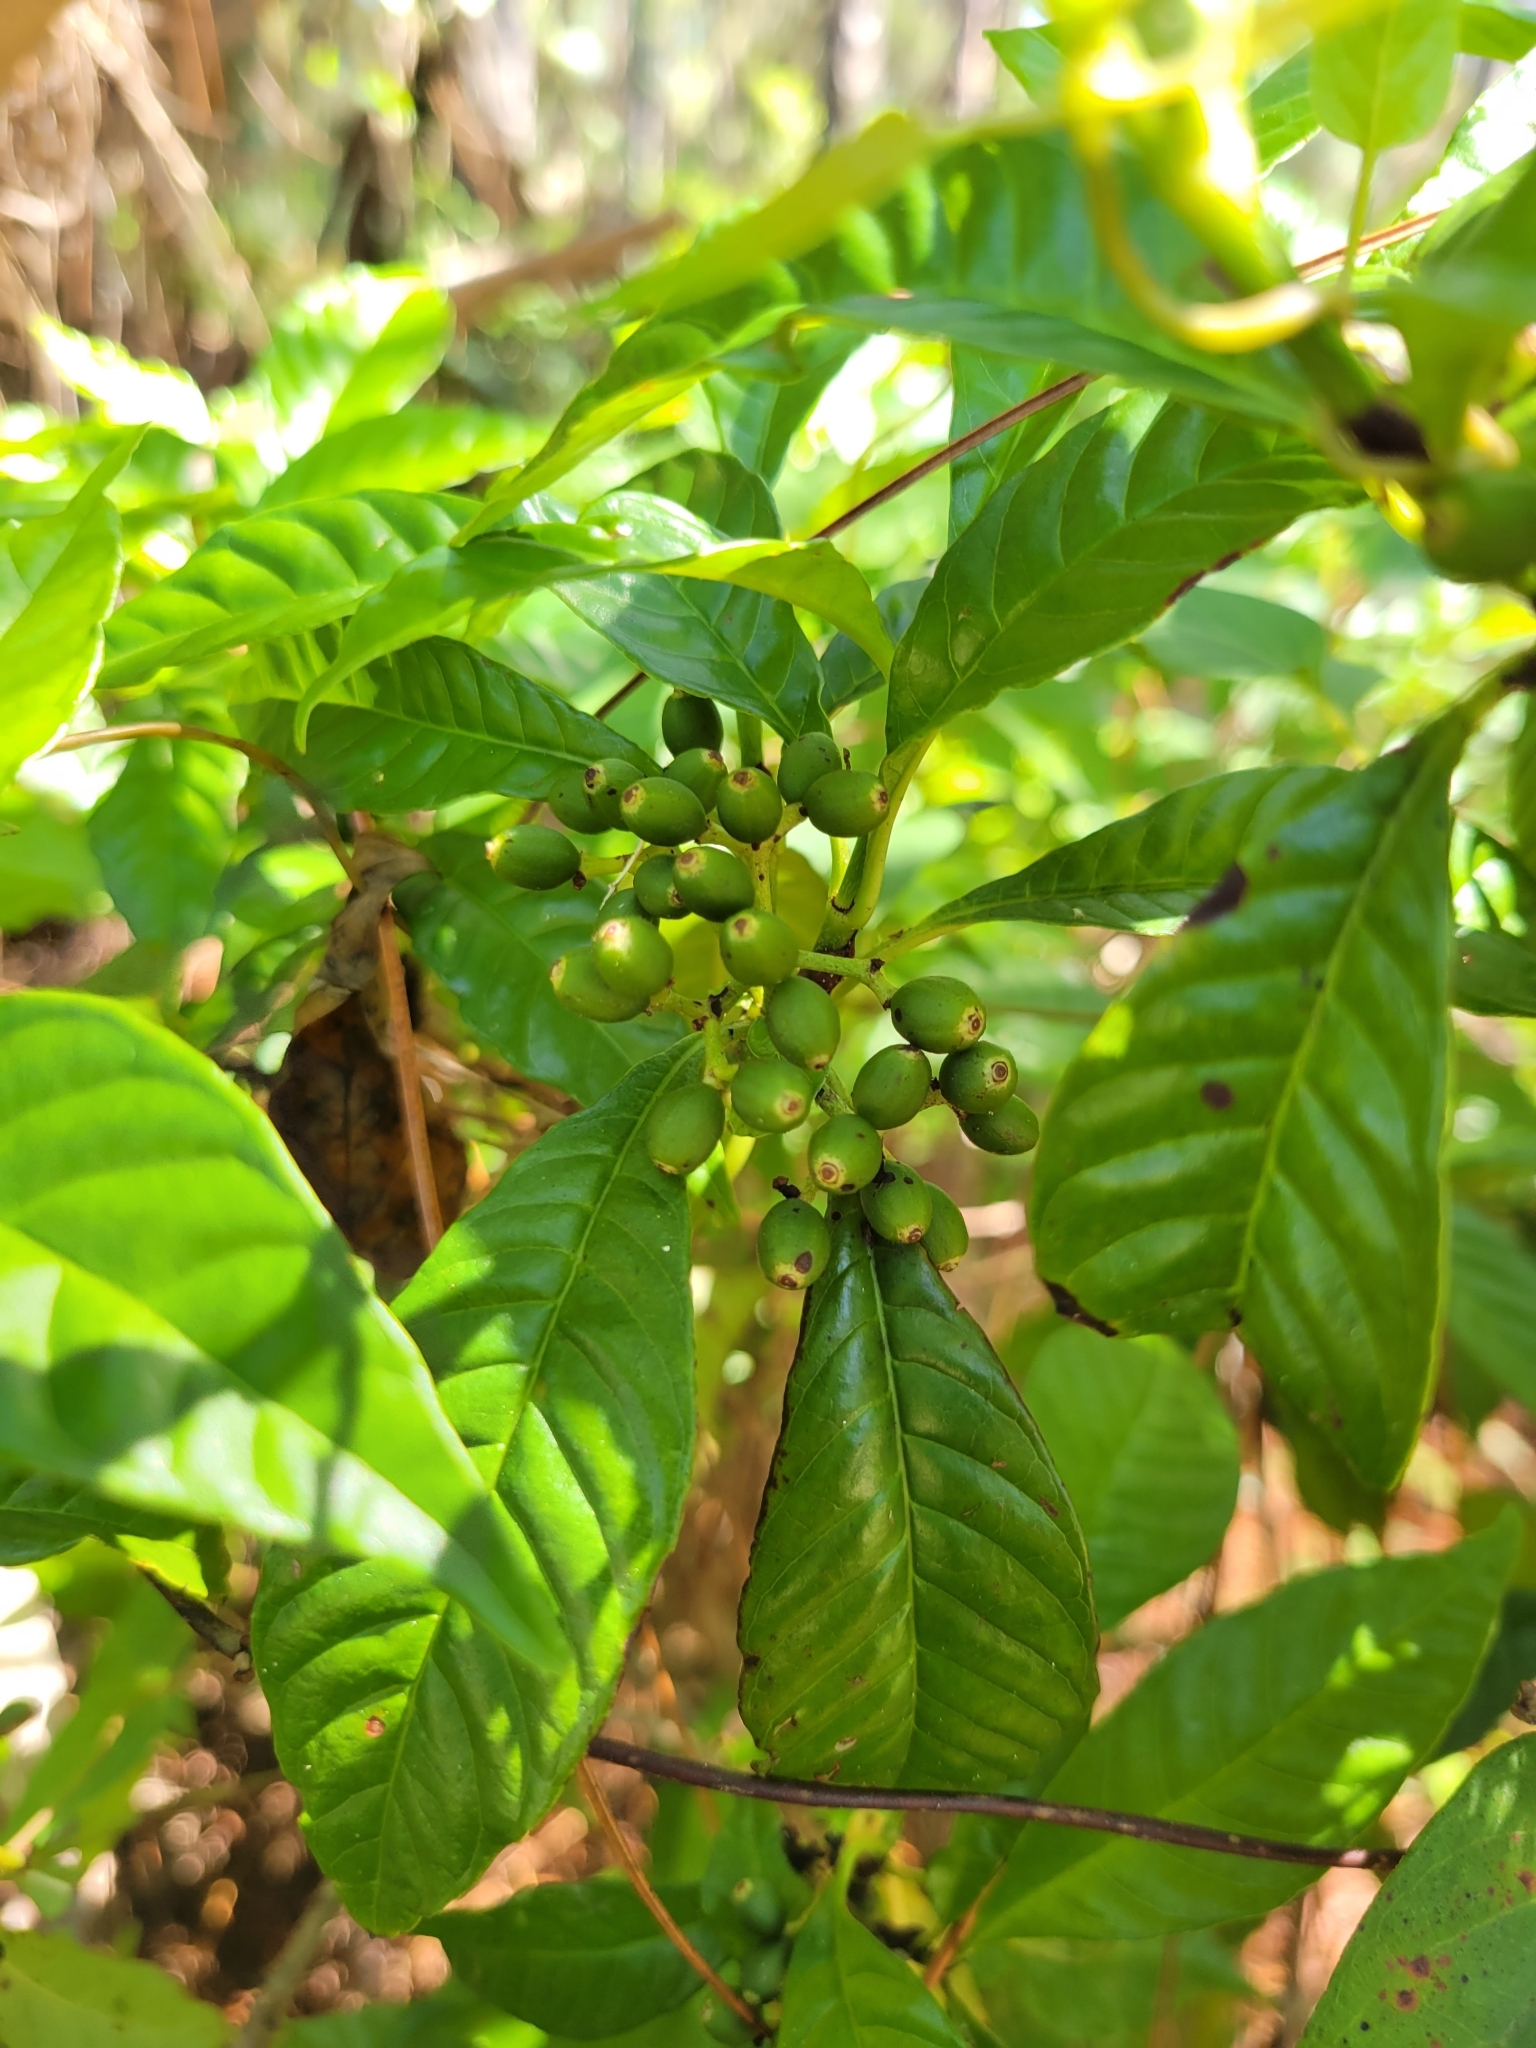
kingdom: Plantae
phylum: Tracheophyta
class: Magnoliopsida
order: Gentianales
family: Rubiaceae
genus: Psychotria
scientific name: Psychotria nervosa
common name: Bastard cankerberry
